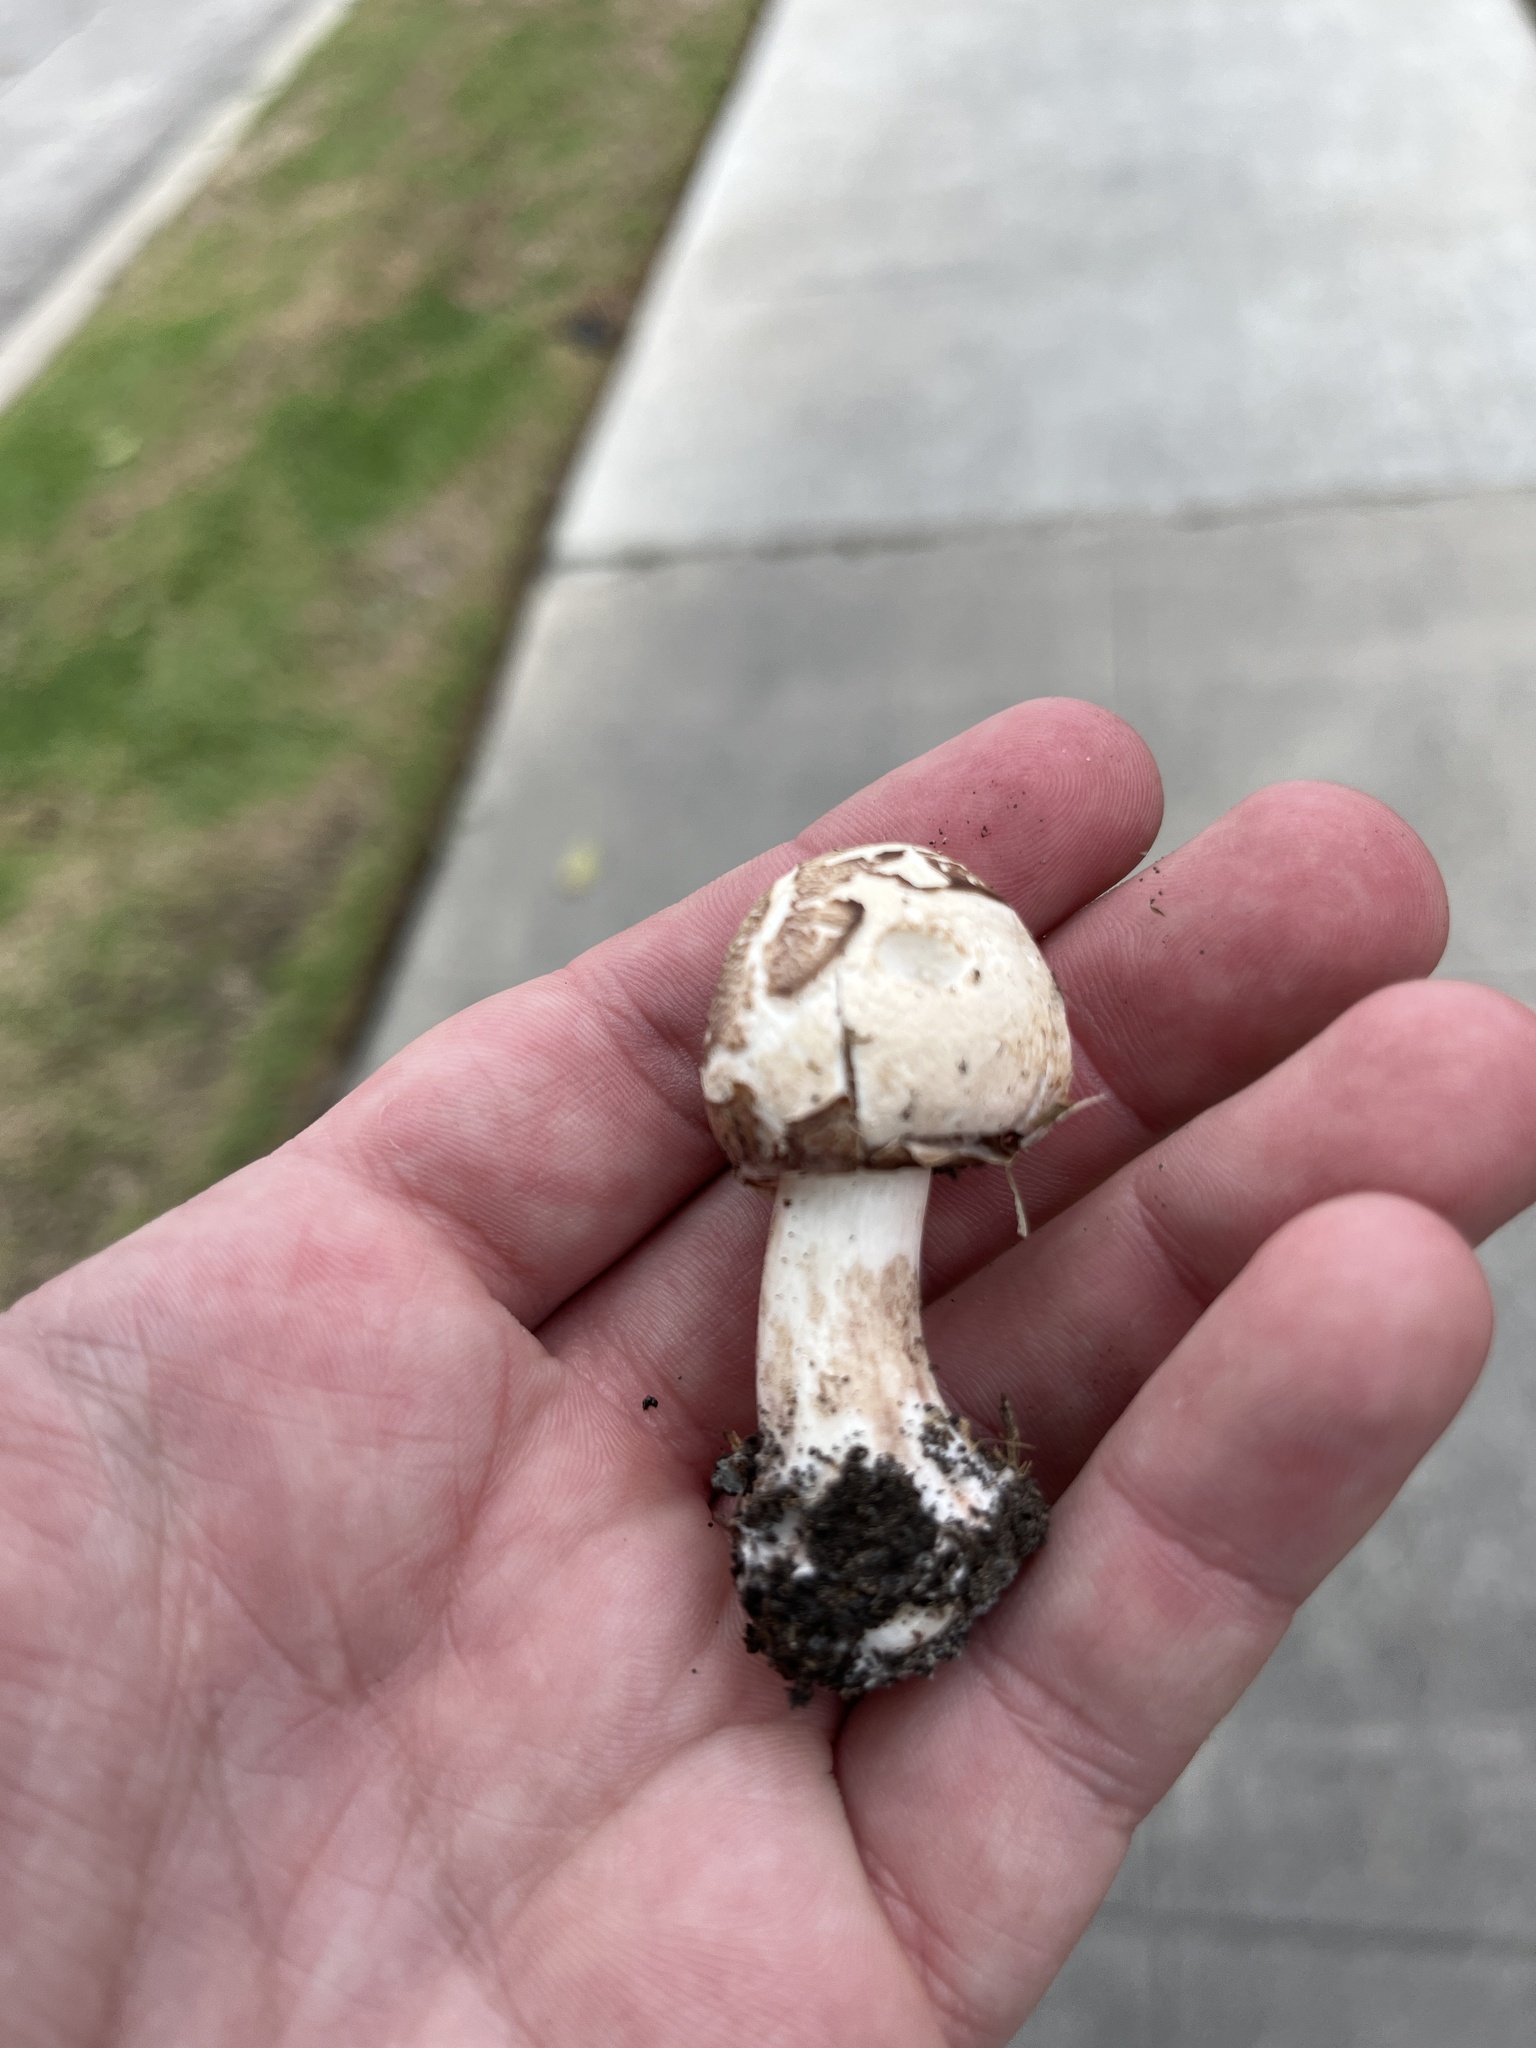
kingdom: Fungi
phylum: Basidiomycota
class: Agaricomycetes
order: Agaricales
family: Agaricaceae
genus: Chlorophyllum
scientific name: Chlorophyllum molybdites
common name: False parasol
